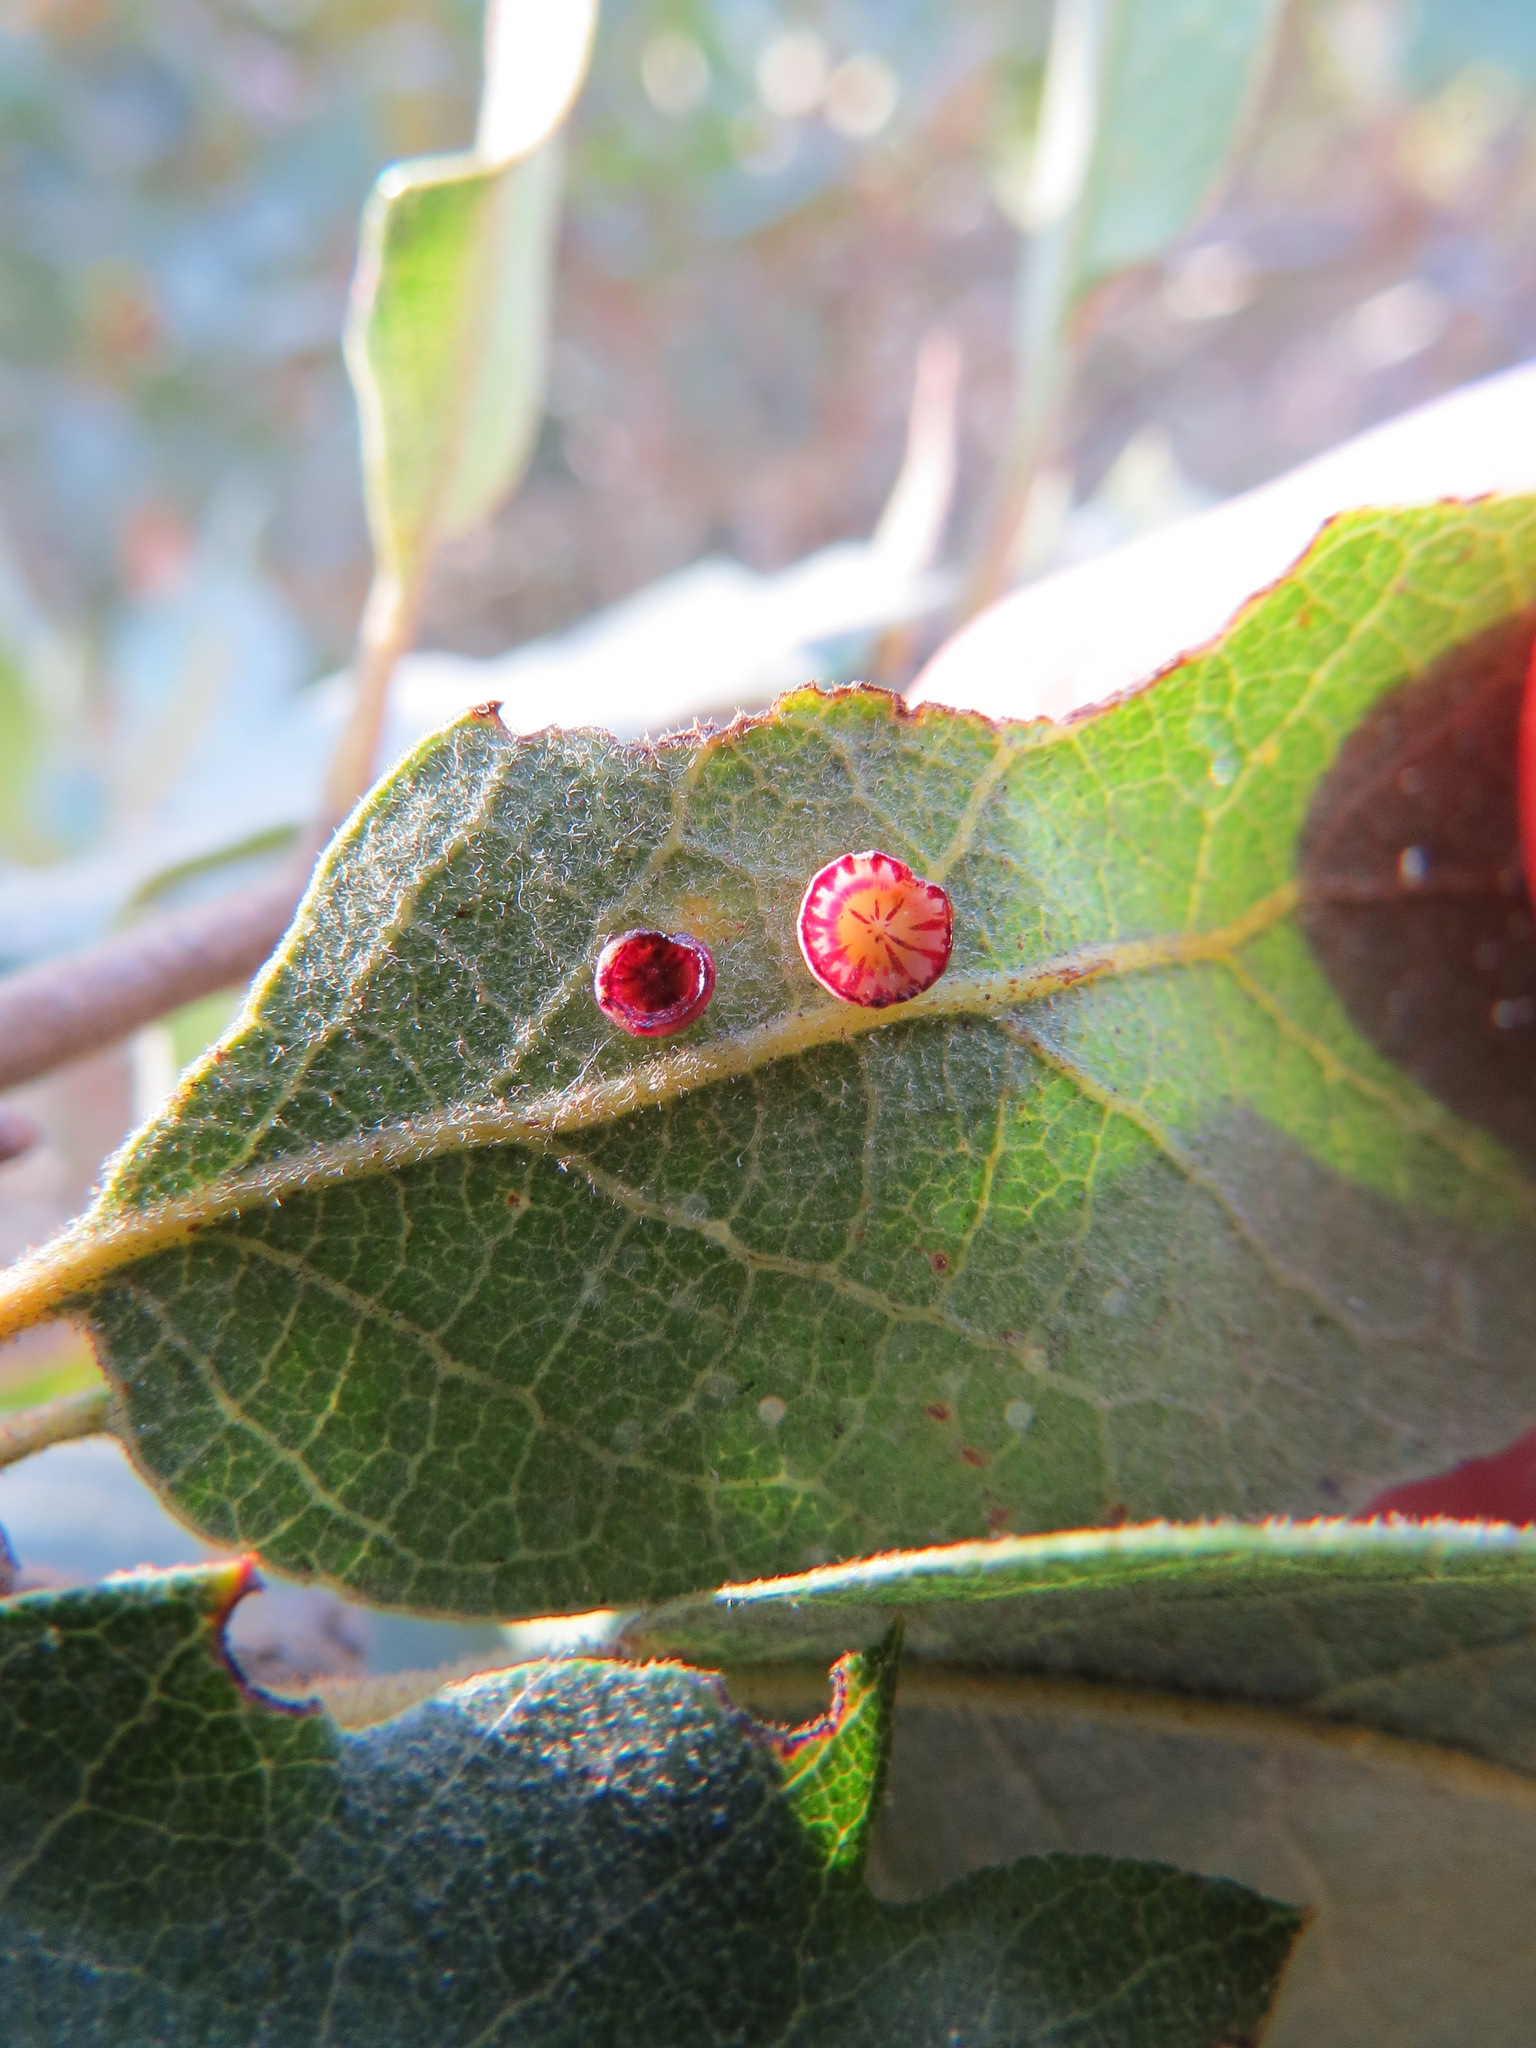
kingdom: Animalia
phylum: Arthropoda
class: Insecta
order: Hymenoptera
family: Cynipidae
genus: Andricus
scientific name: Andricus
